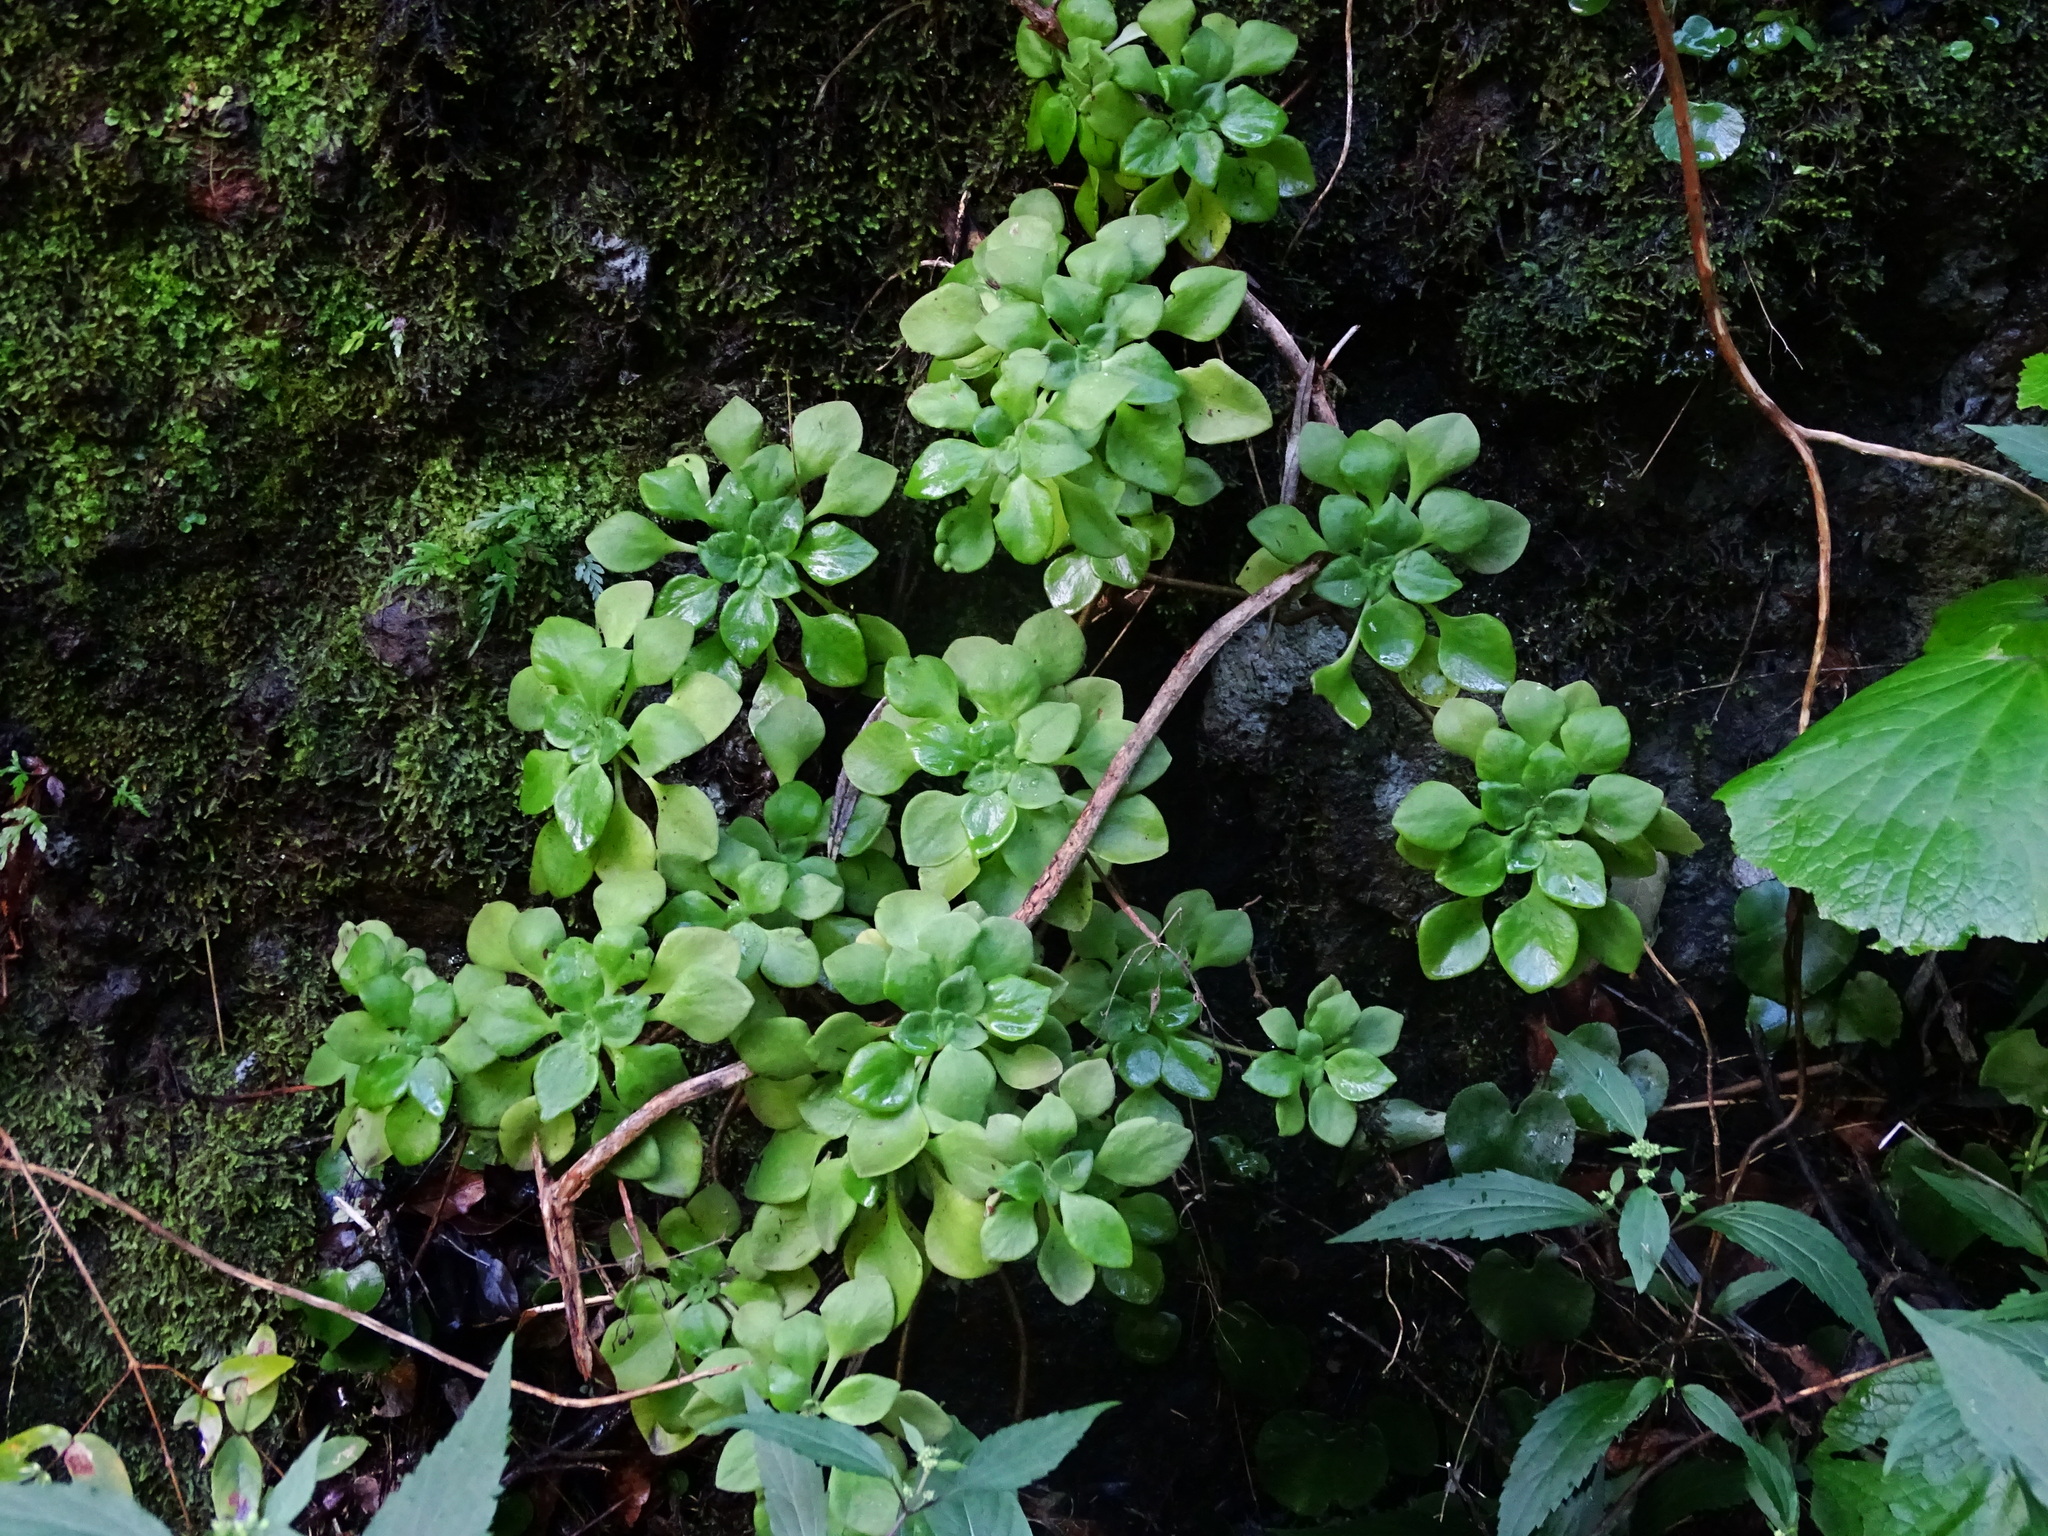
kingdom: Plantae
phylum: Tracheophyta
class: Magnoliopsida
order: Saxifragales
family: Crassulaceae
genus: Aeonium
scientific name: Aeonium goochiae
